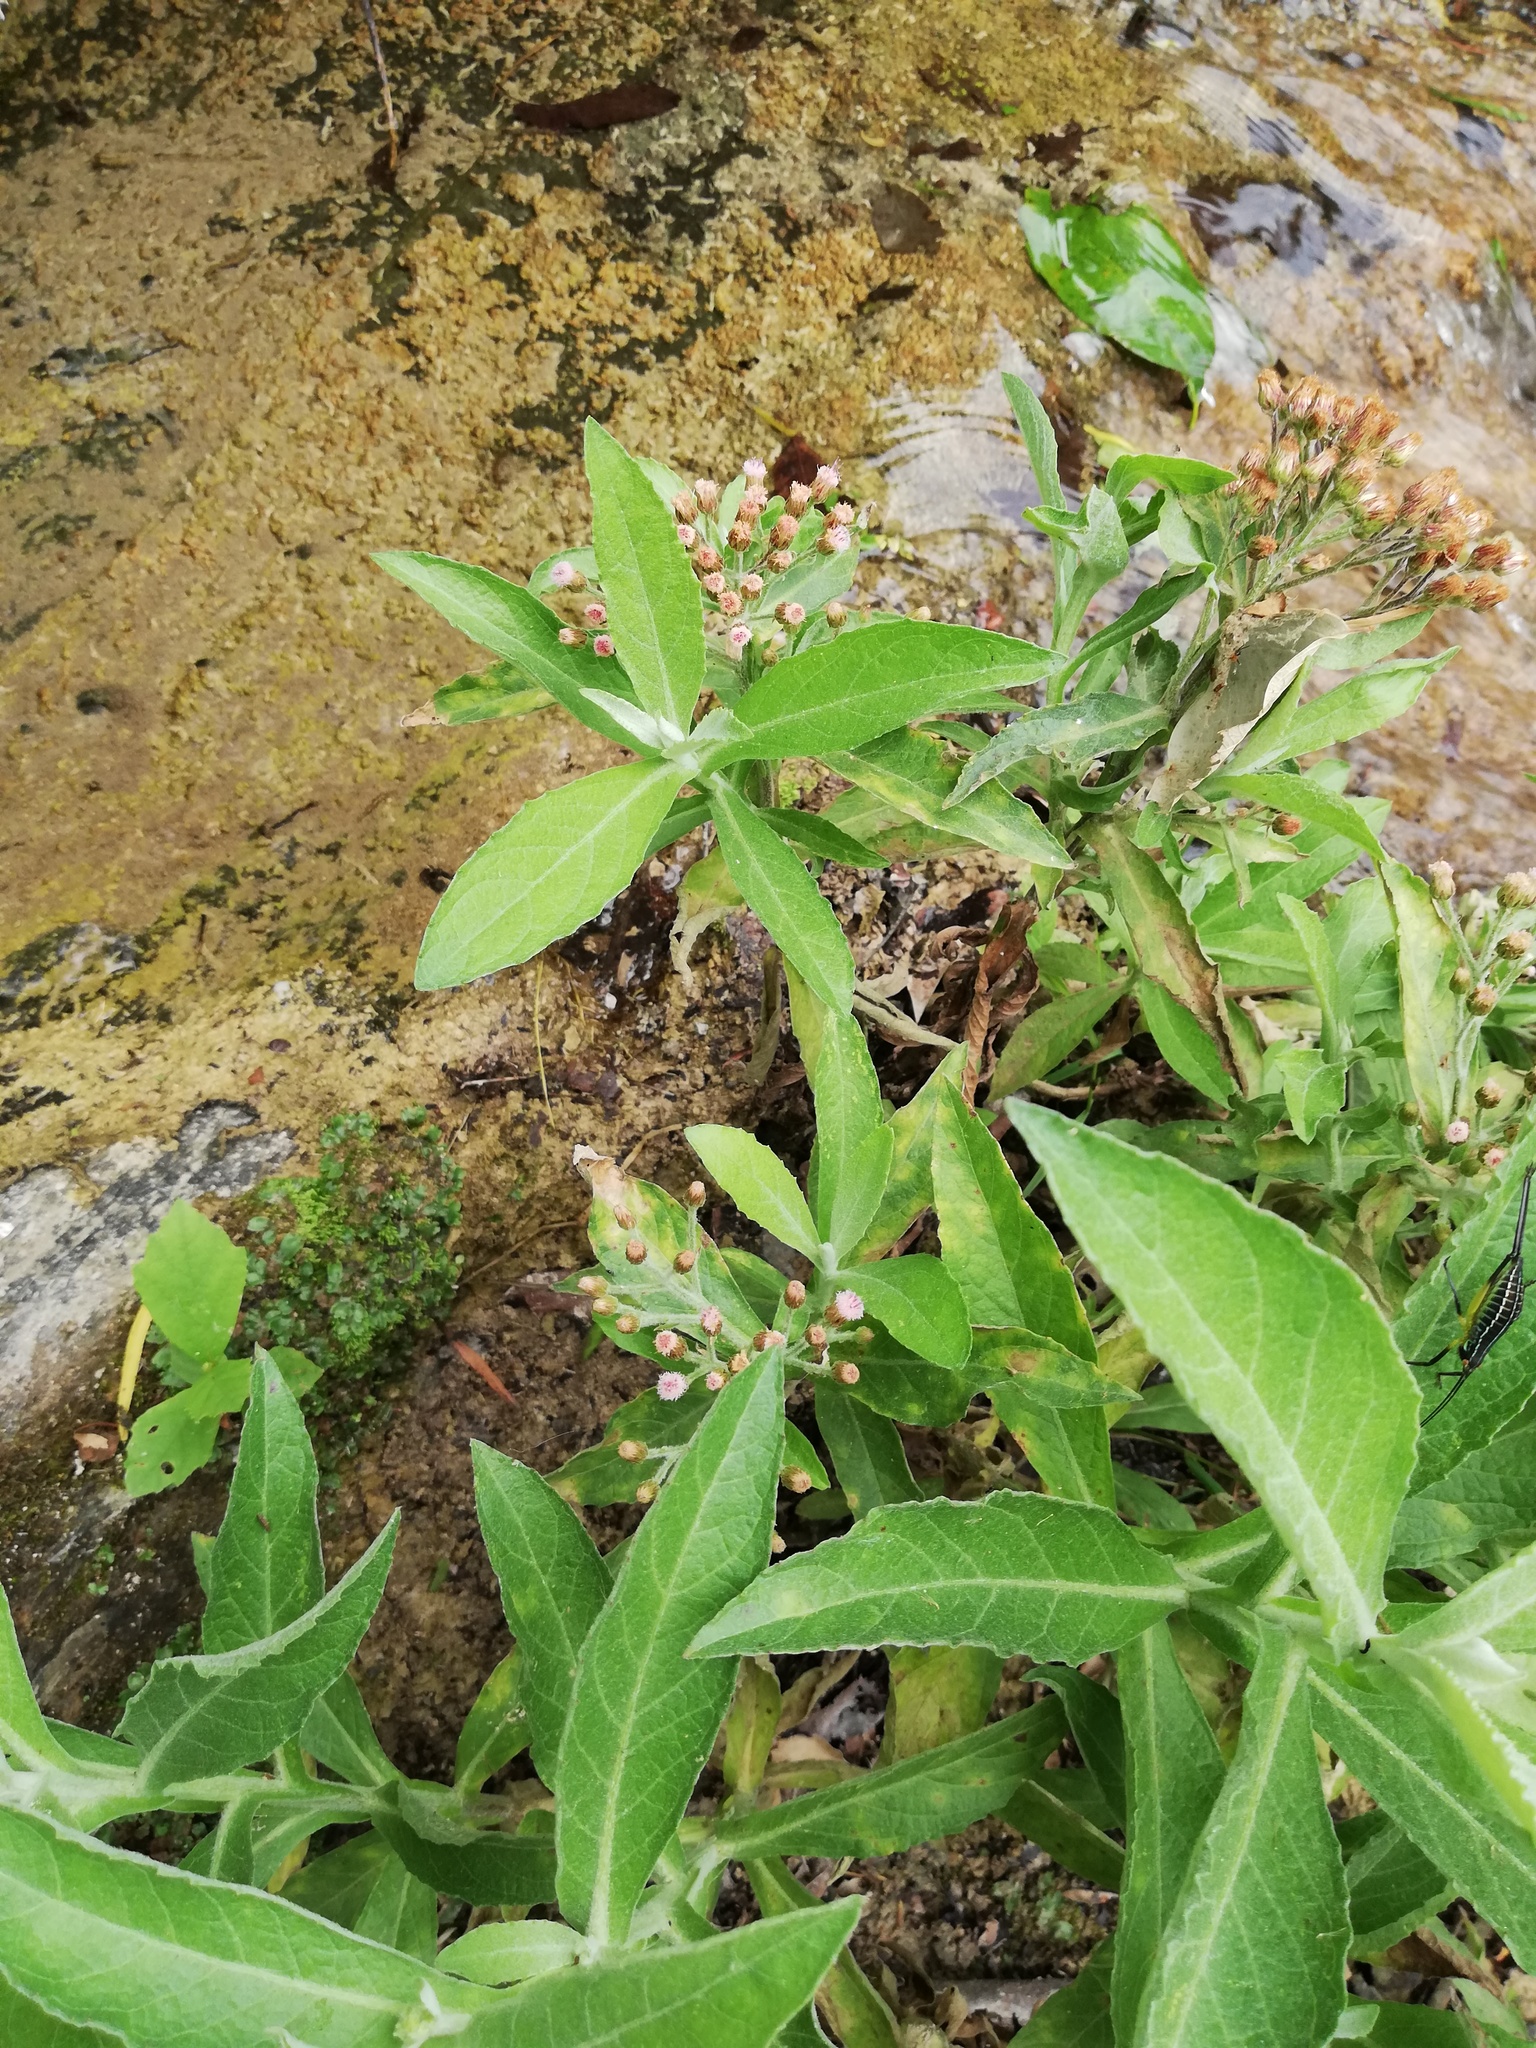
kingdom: Plantae
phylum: Tracheophyta
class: Magnoliopsida
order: Asterales
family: Asteraceae
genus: Pluchea
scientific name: Pluchea carolinensis
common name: Marsh fleabane
